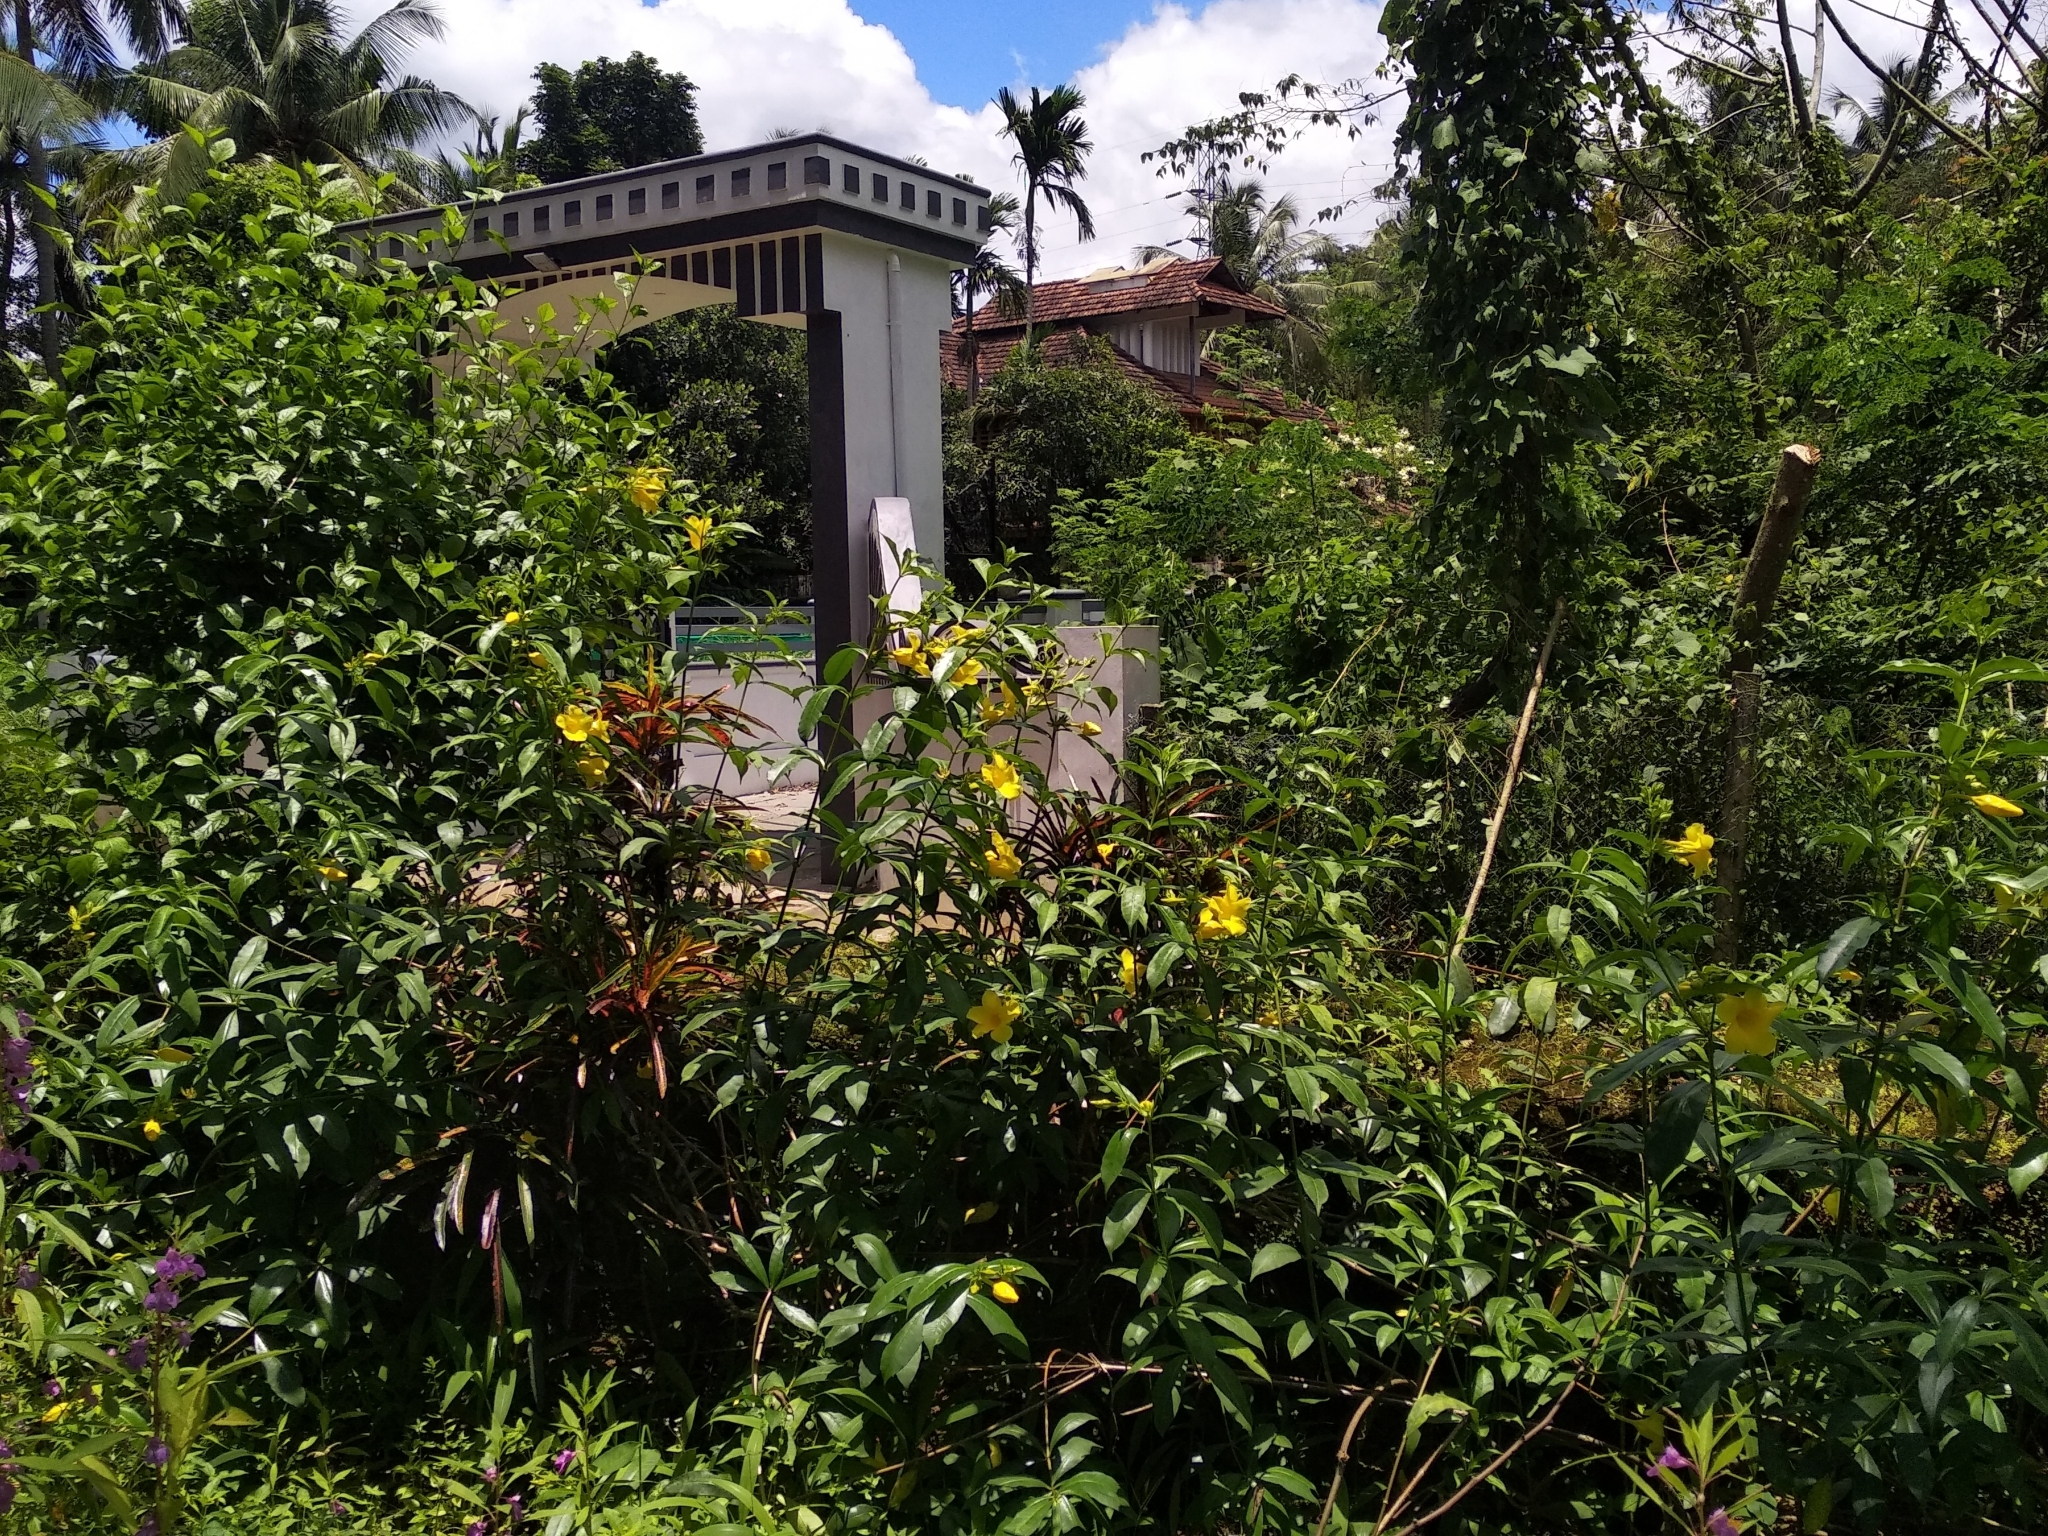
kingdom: Plantae
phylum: Tracheophyta
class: Magnoliopsida
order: Gentianales
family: Apocynaceae
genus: Allamanda
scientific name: Allamanda cathartica
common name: Golden trumpet
